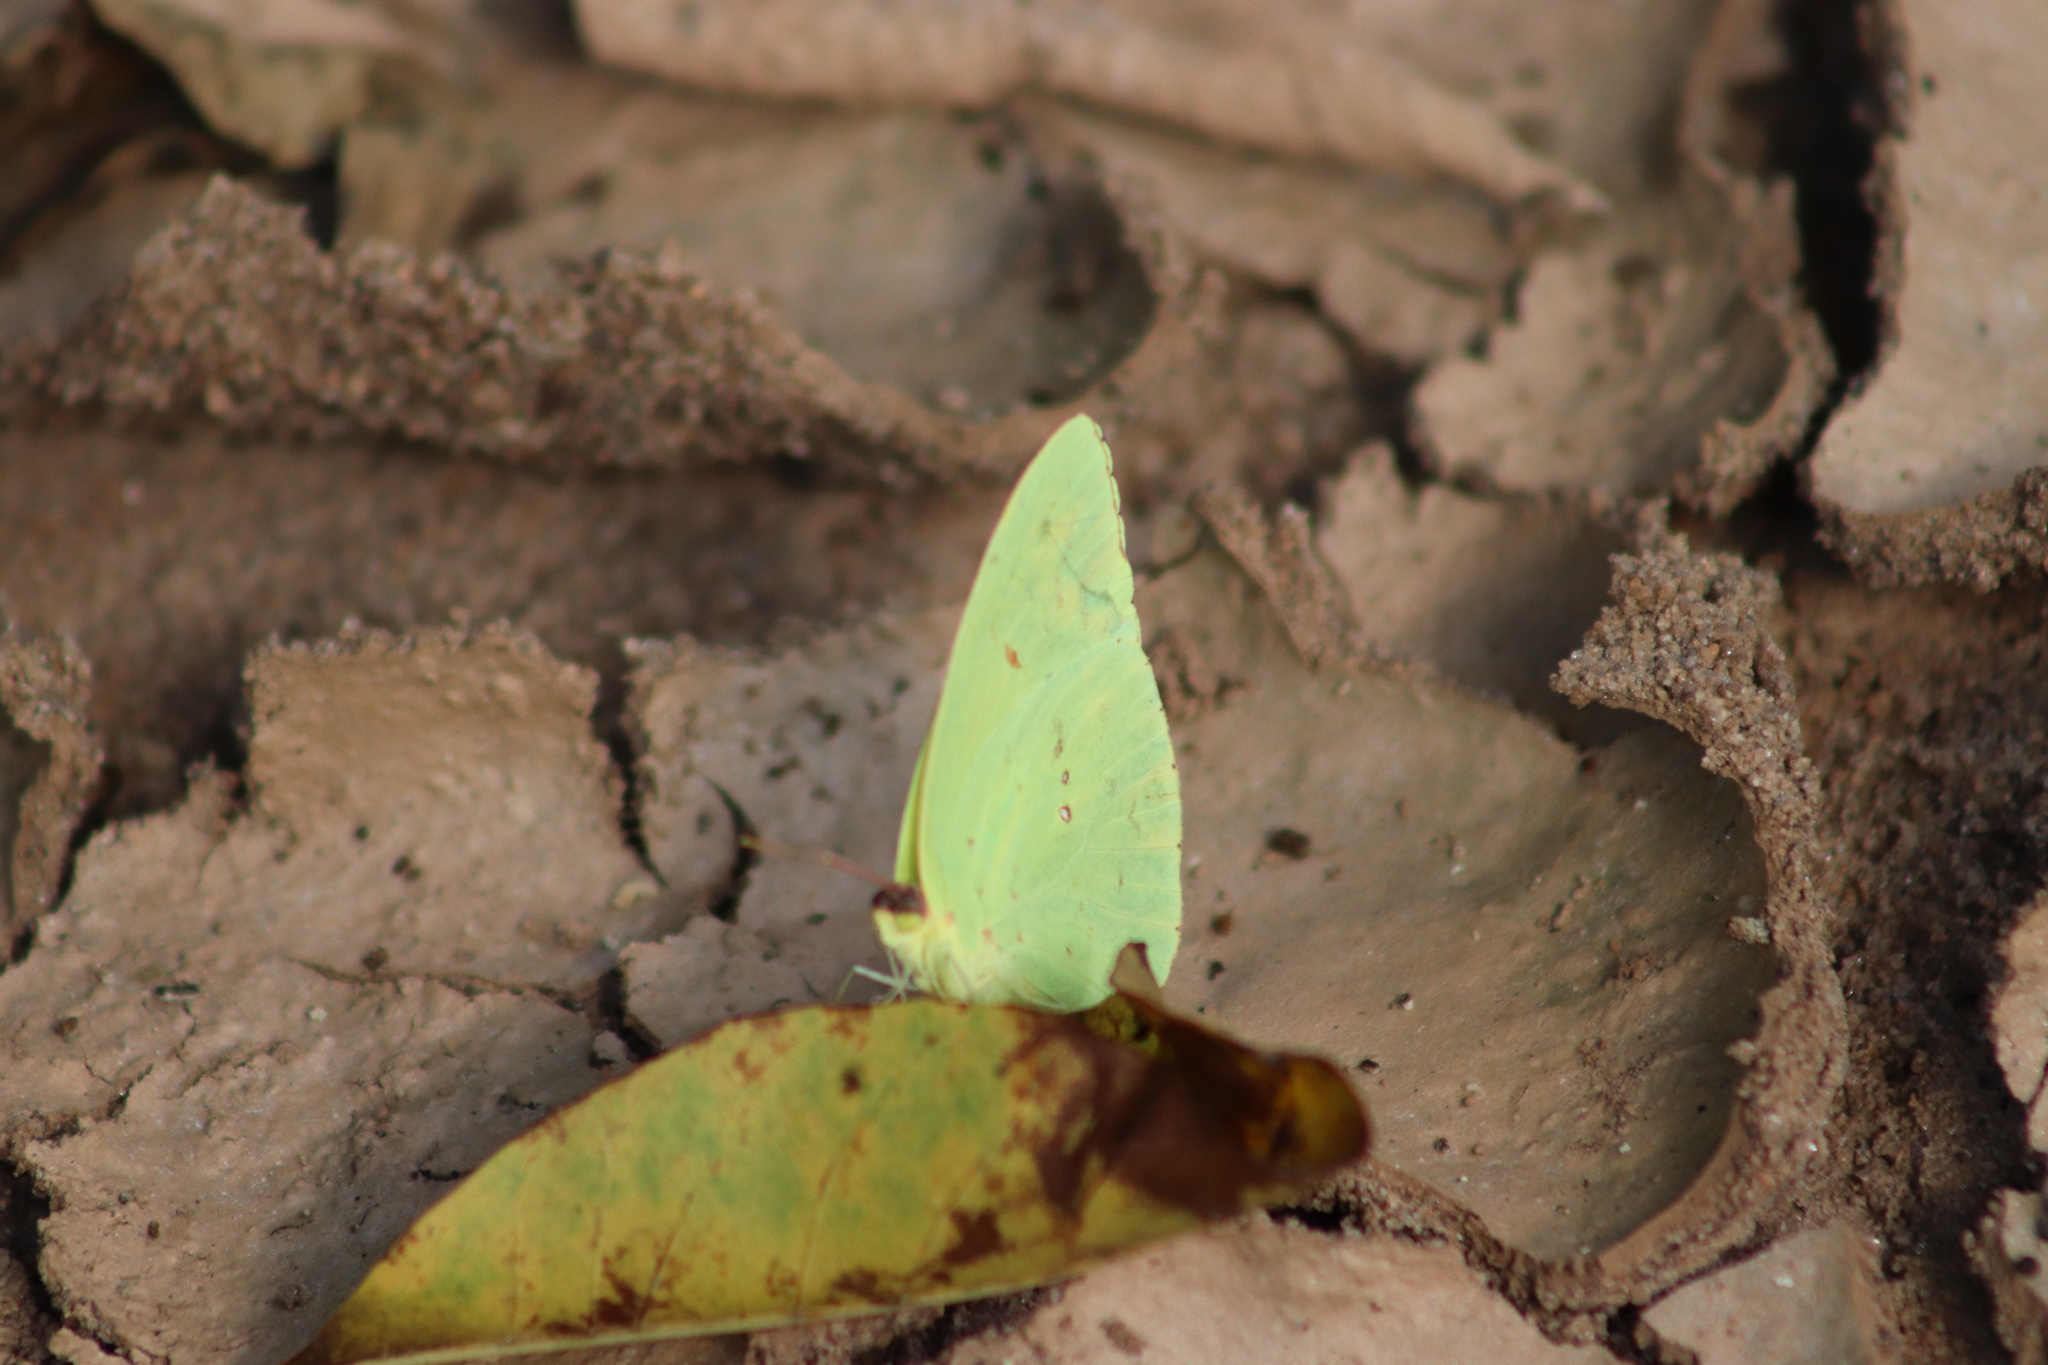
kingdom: Animalia
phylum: Arthropoda
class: Insecta
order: Lepidoptera
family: Pieridae
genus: Phoebis
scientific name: Phoebis sennae
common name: Cloudless sulphur
